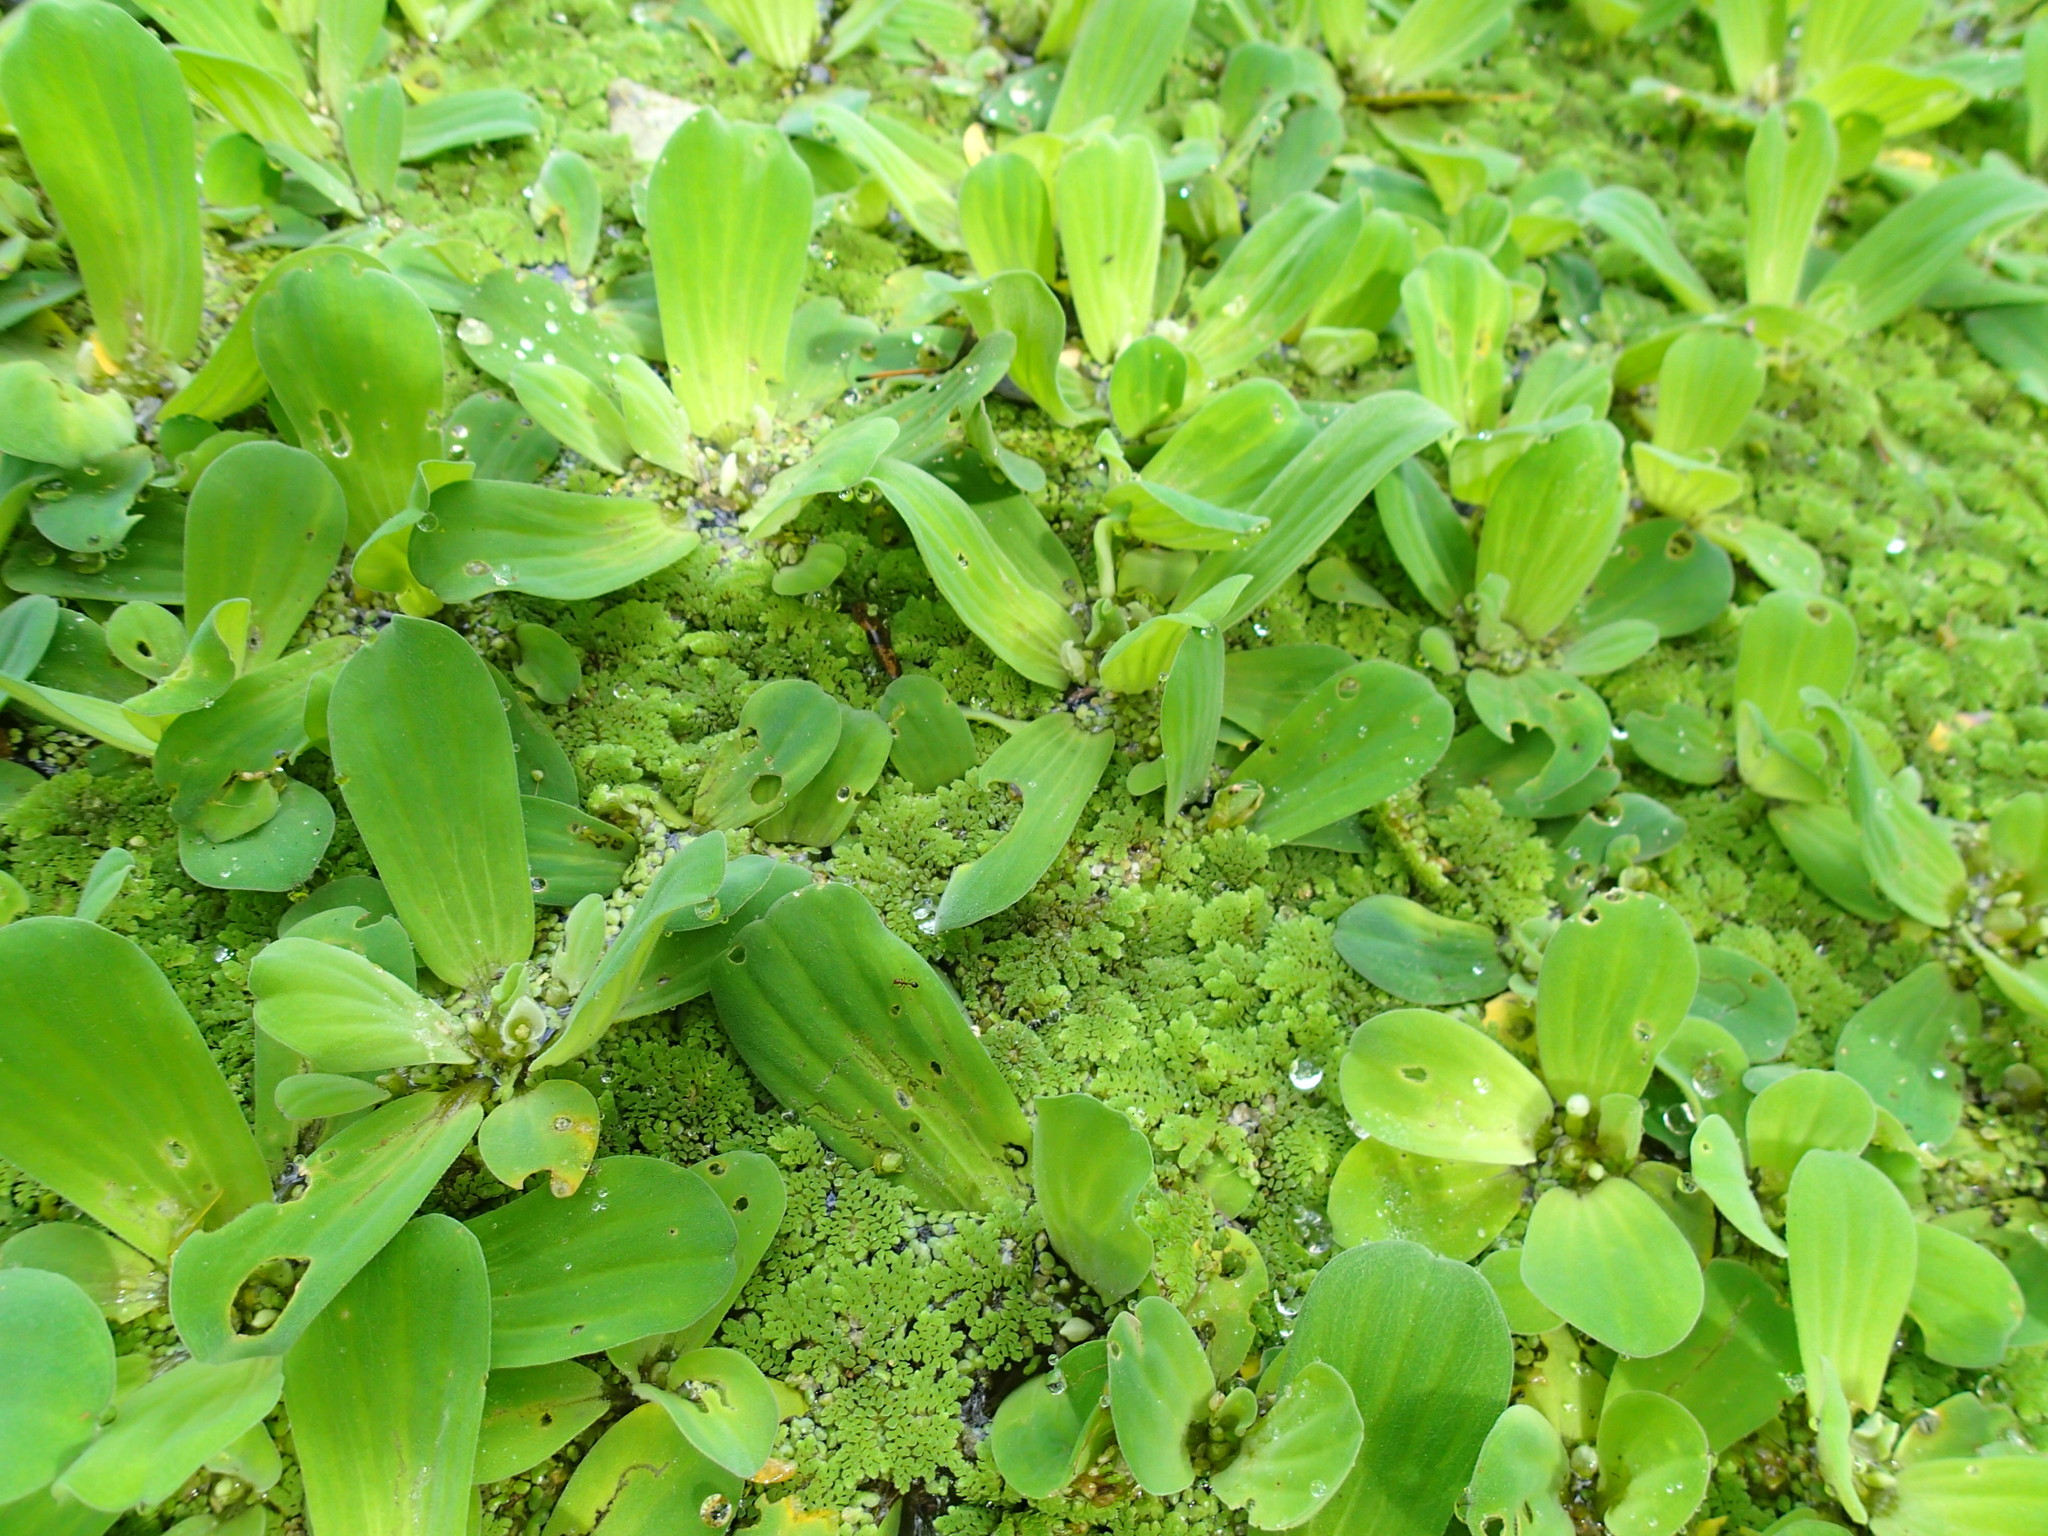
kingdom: Plantae
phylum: Tracheophyta
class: Liliopsida
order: Alismatales
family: Araceae
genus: Pistia
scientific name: Pistia stratiotes
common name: Water lettuce
